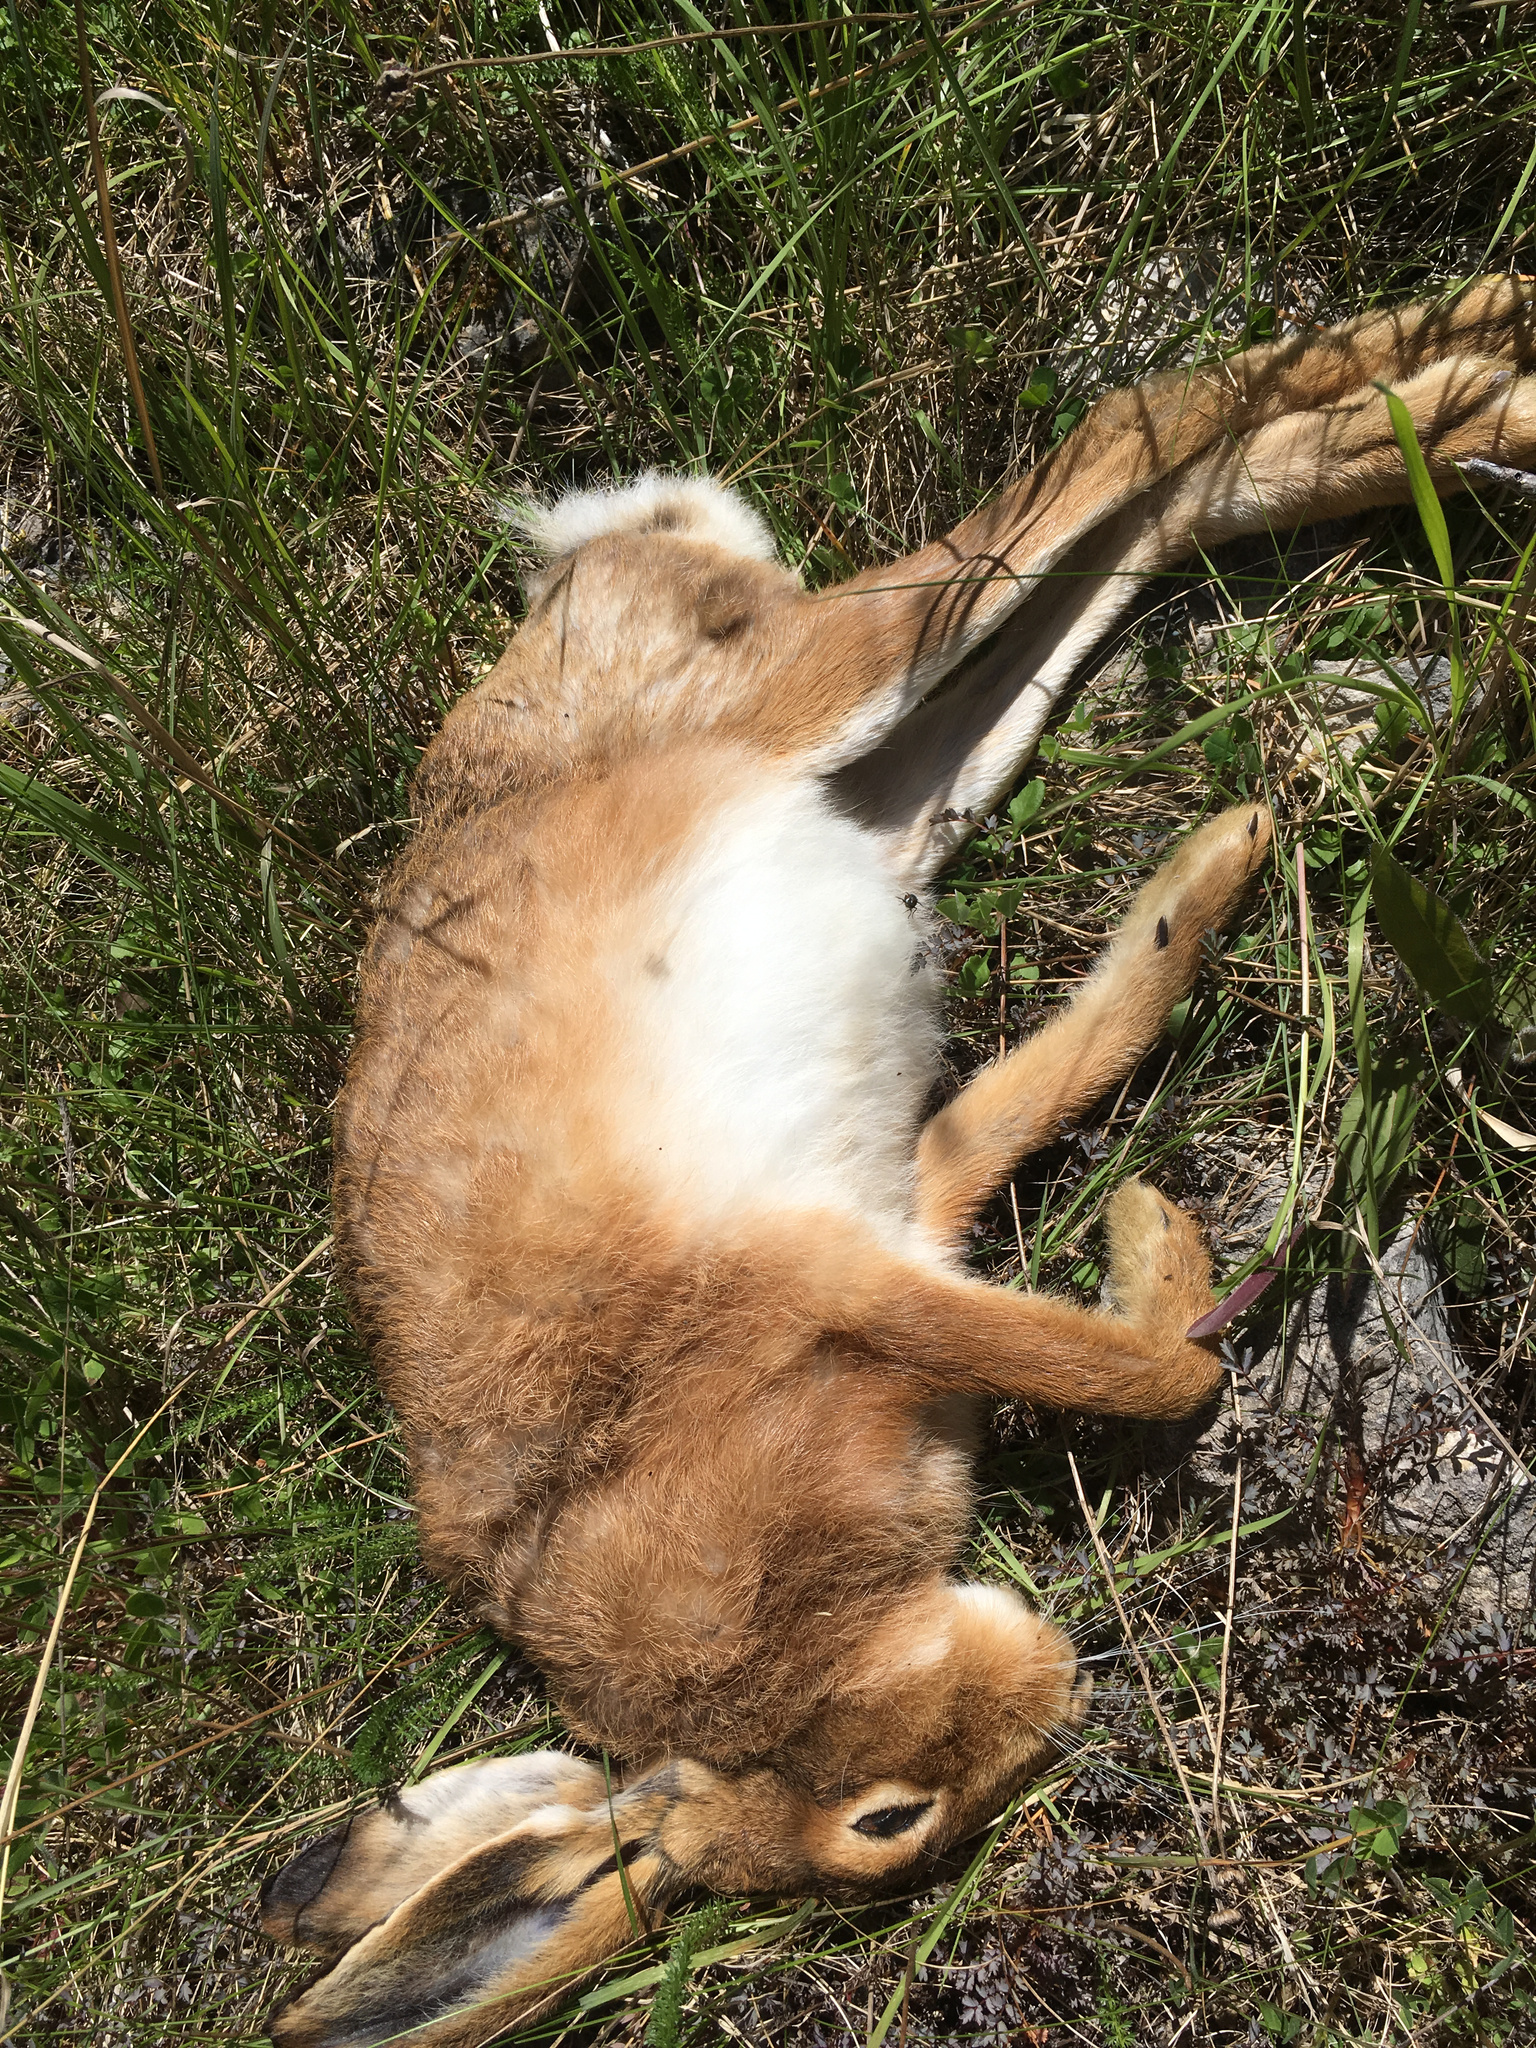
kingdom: Animalia
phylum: Chordata
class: Mammalia
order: Lagomorpha
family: Leporidae
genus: Lepus
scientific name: Lepus europaeus
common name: European hare
